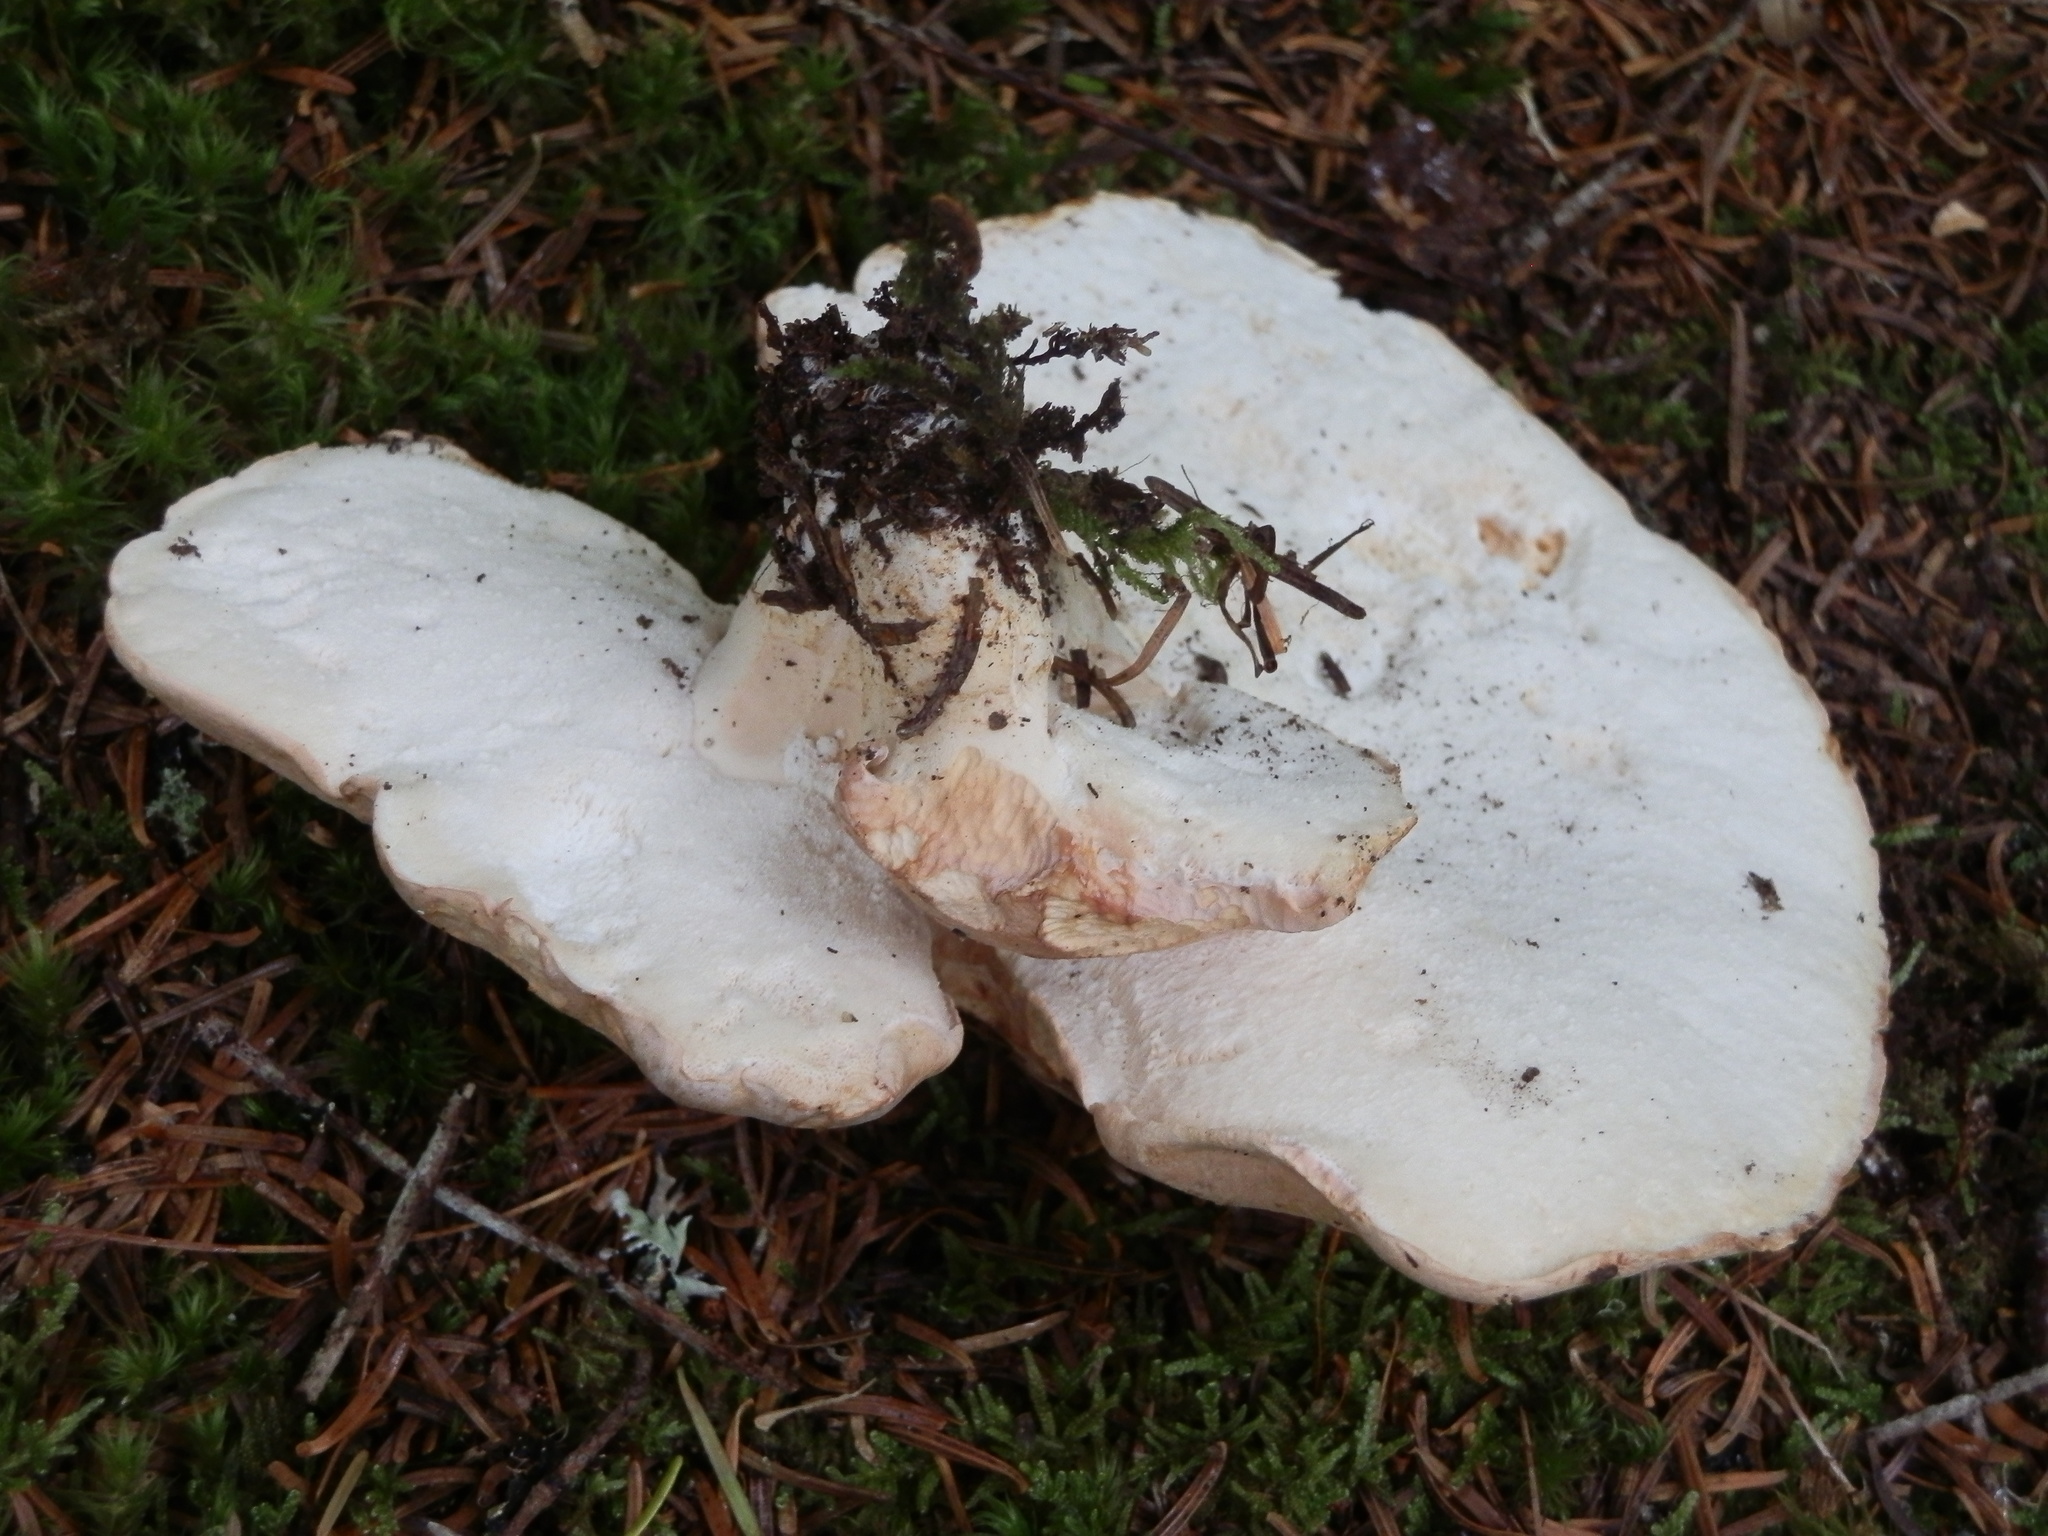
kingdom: Fungi
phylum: Basidiomycota
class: Agaricomycetes
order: Russulales
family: Albatrellaceae
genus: Albatrellopsis
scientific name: Albatrellopsis confluens
